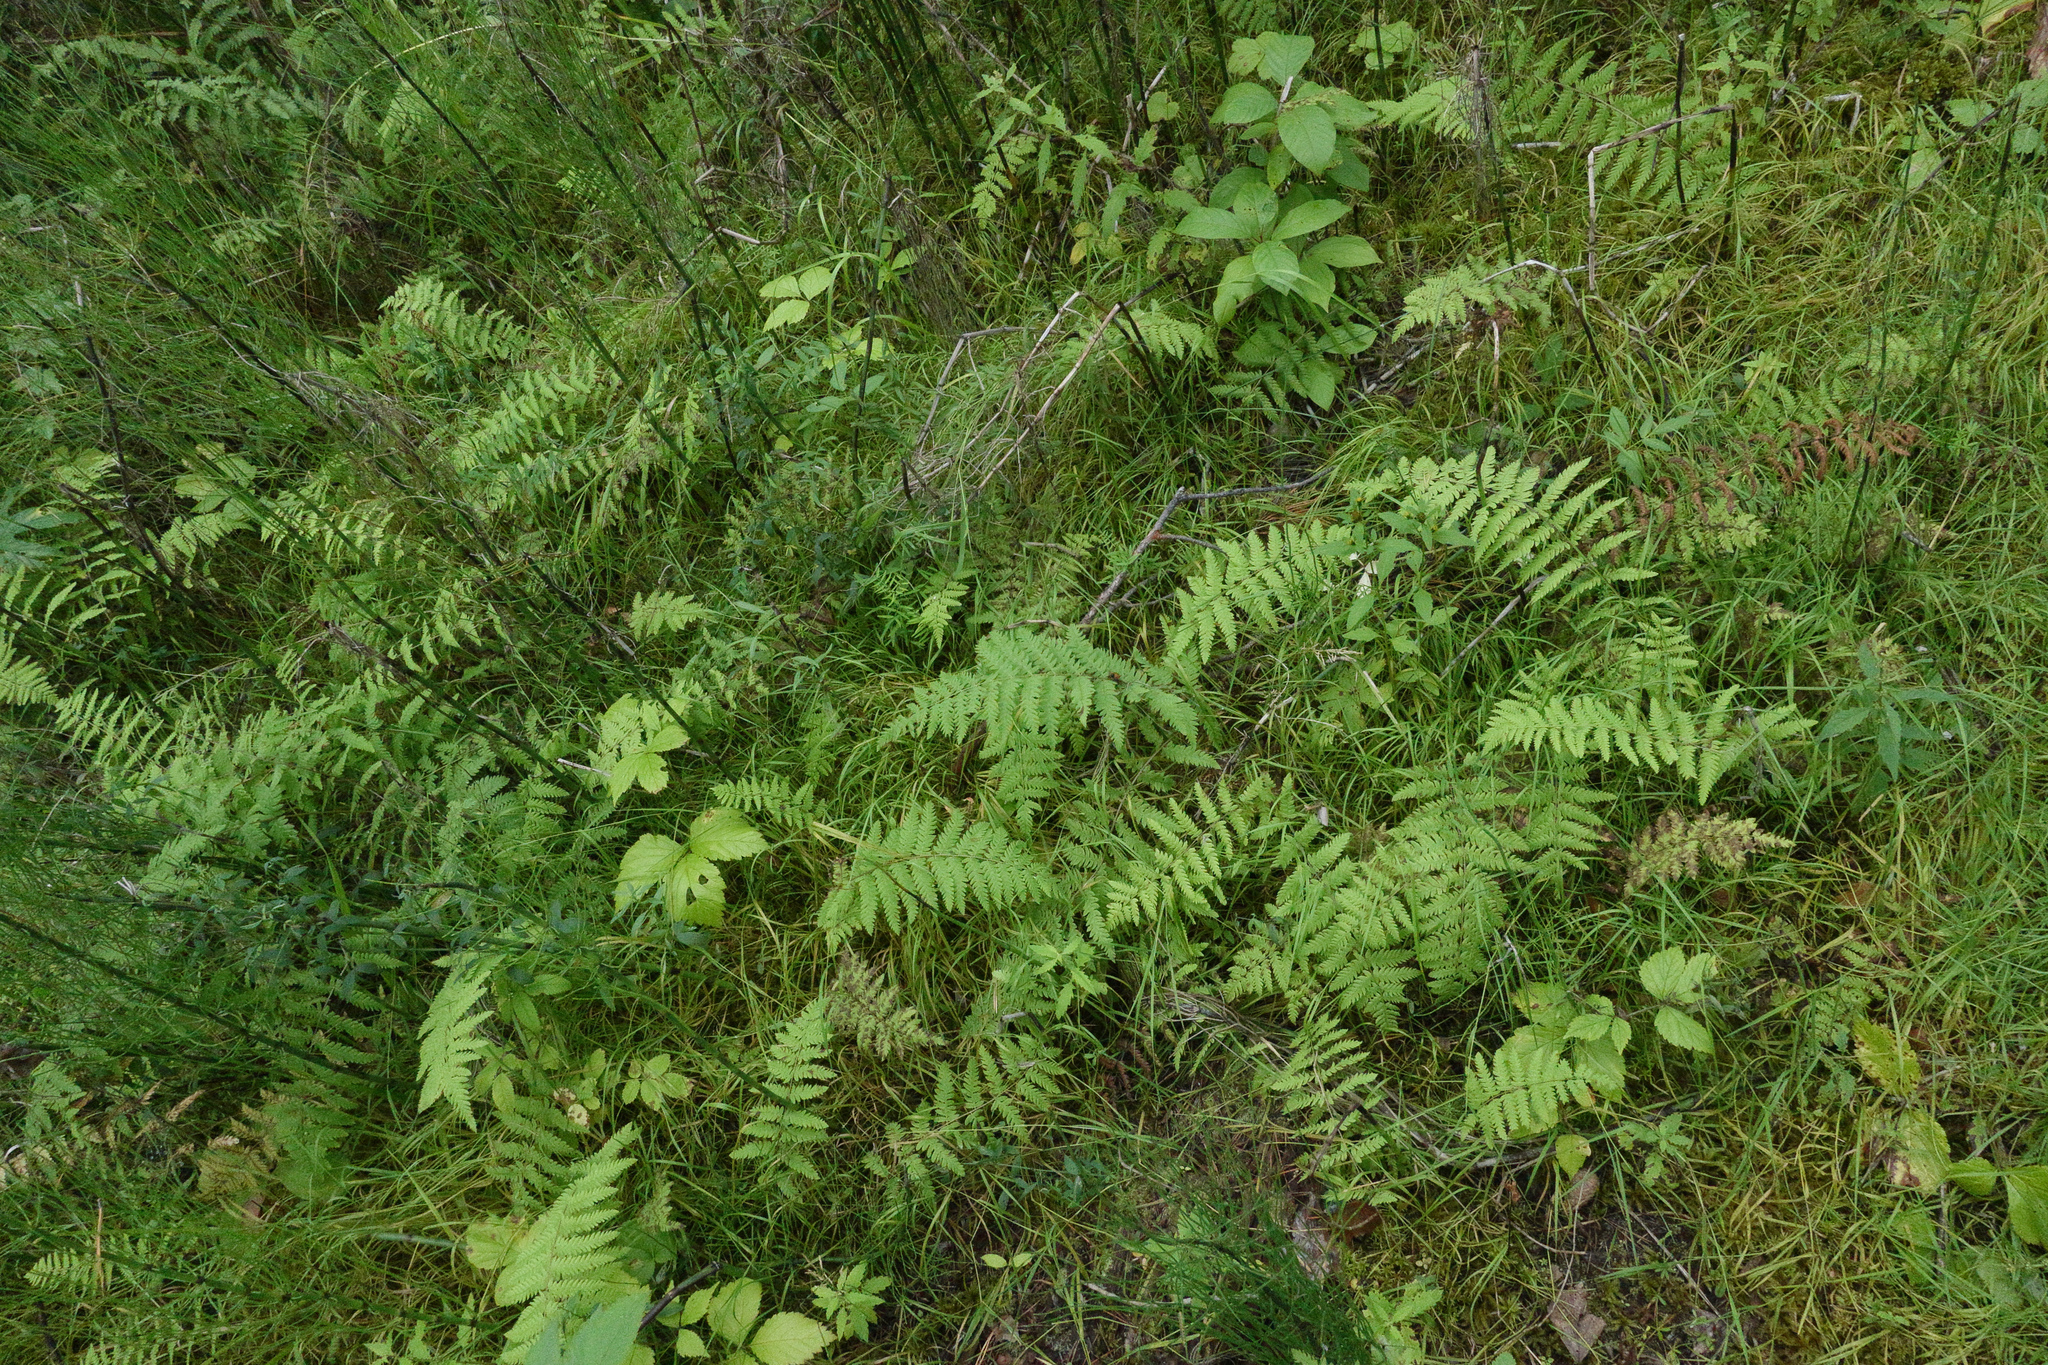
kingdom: Plantae
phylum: Tracheophyta
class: Polypodiopsida
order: Polypodiales
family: Thelypteridaceae
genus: Thelypteris
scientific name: Thelypteris palustris
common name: Marsh fern
